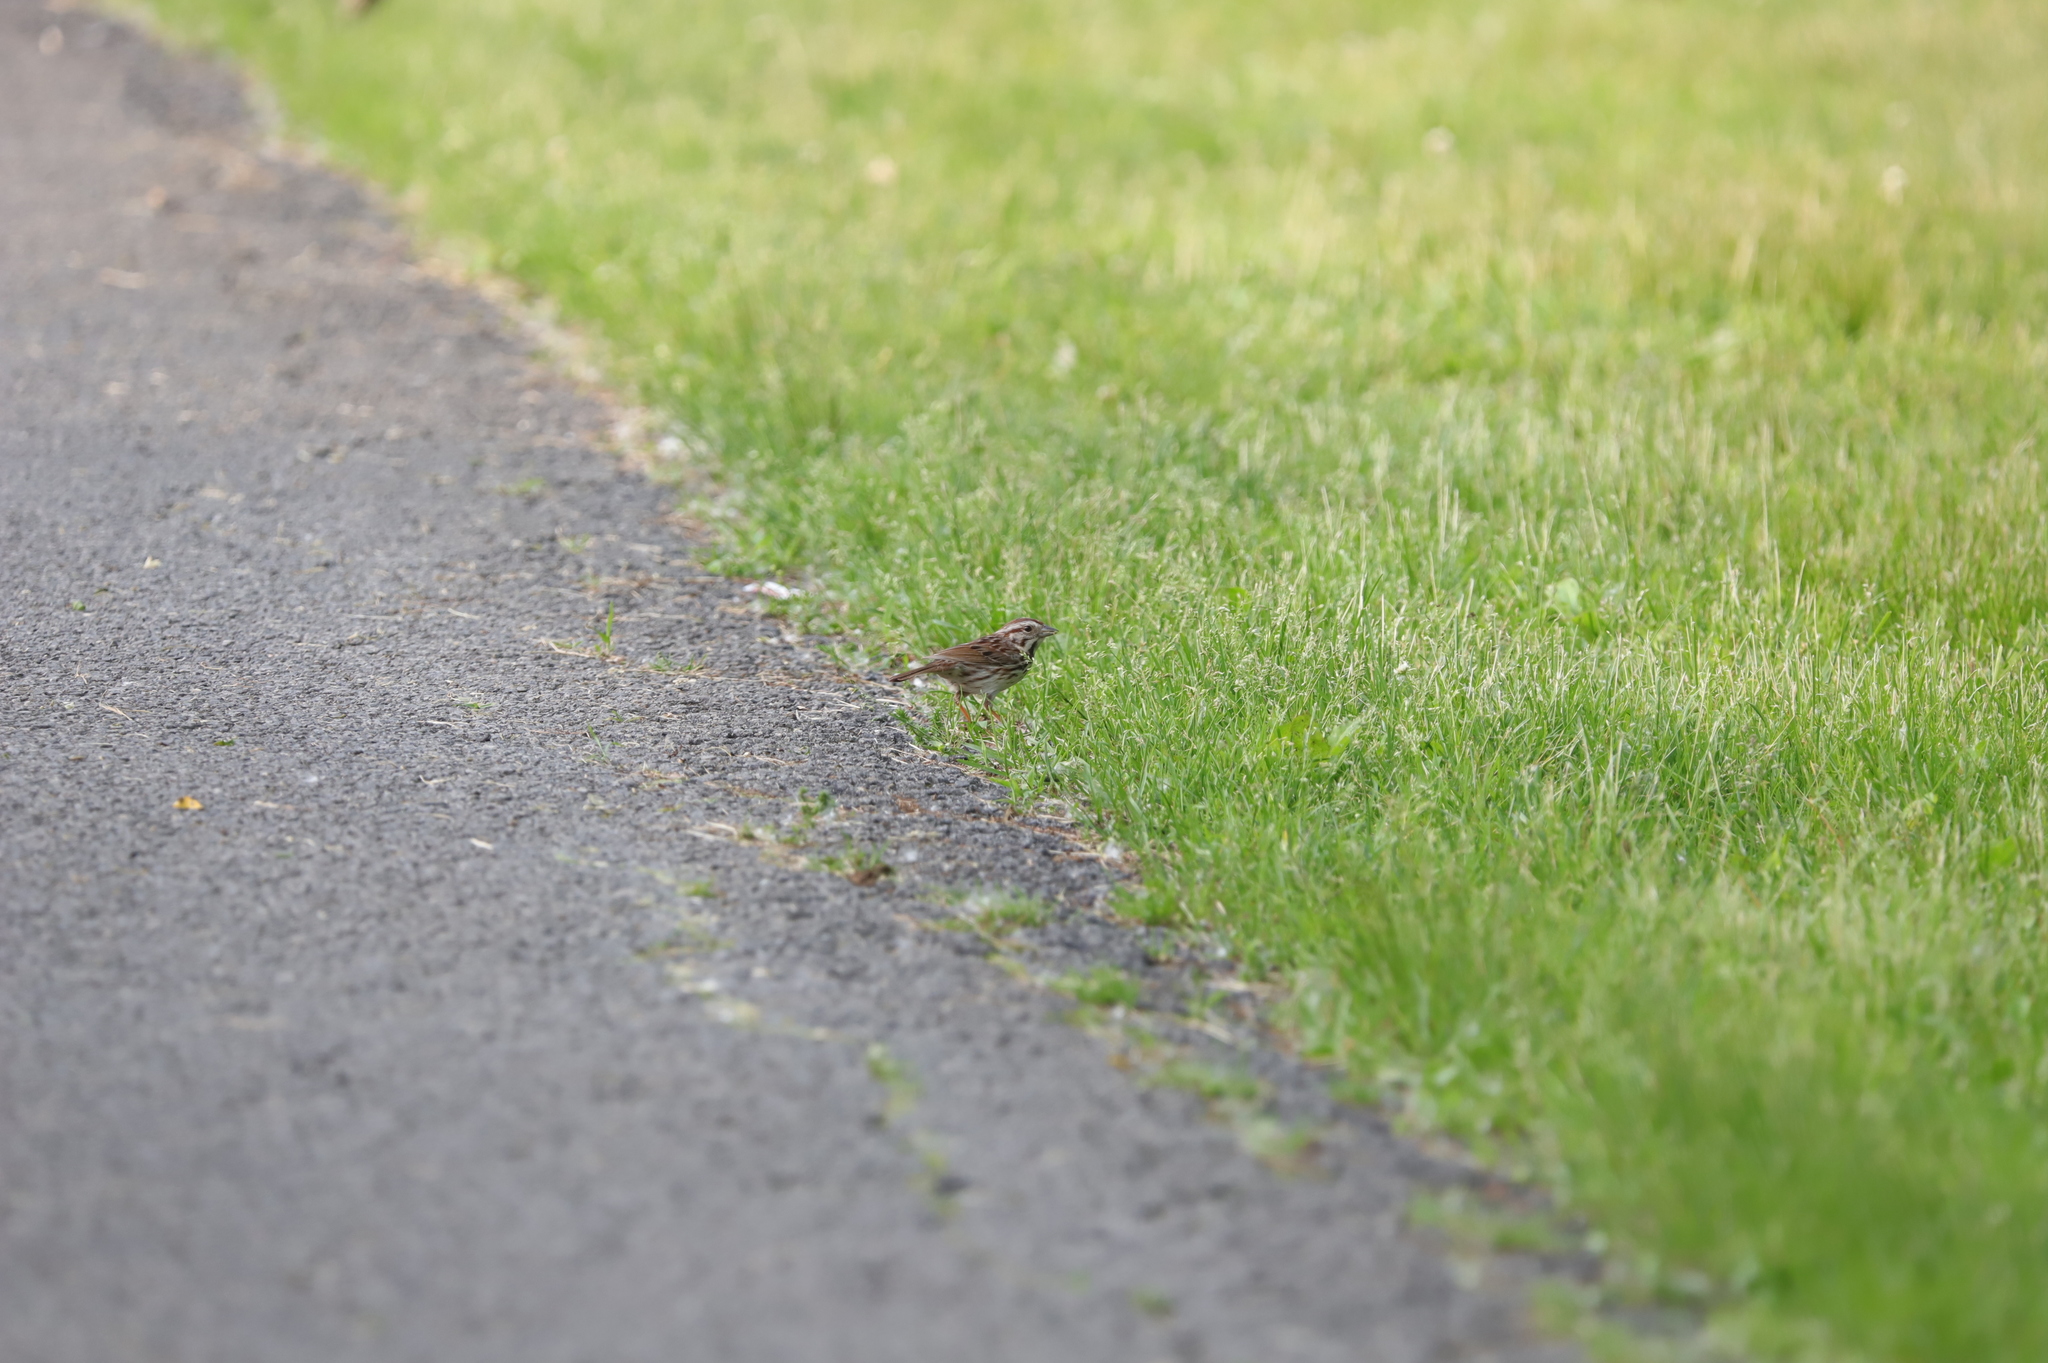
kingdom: Animalia
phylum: Chordata
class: Aves
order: Passeriformes
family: Passerellidae
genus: Melospiza
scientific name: Melospiza melodia
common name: Song sparrow
